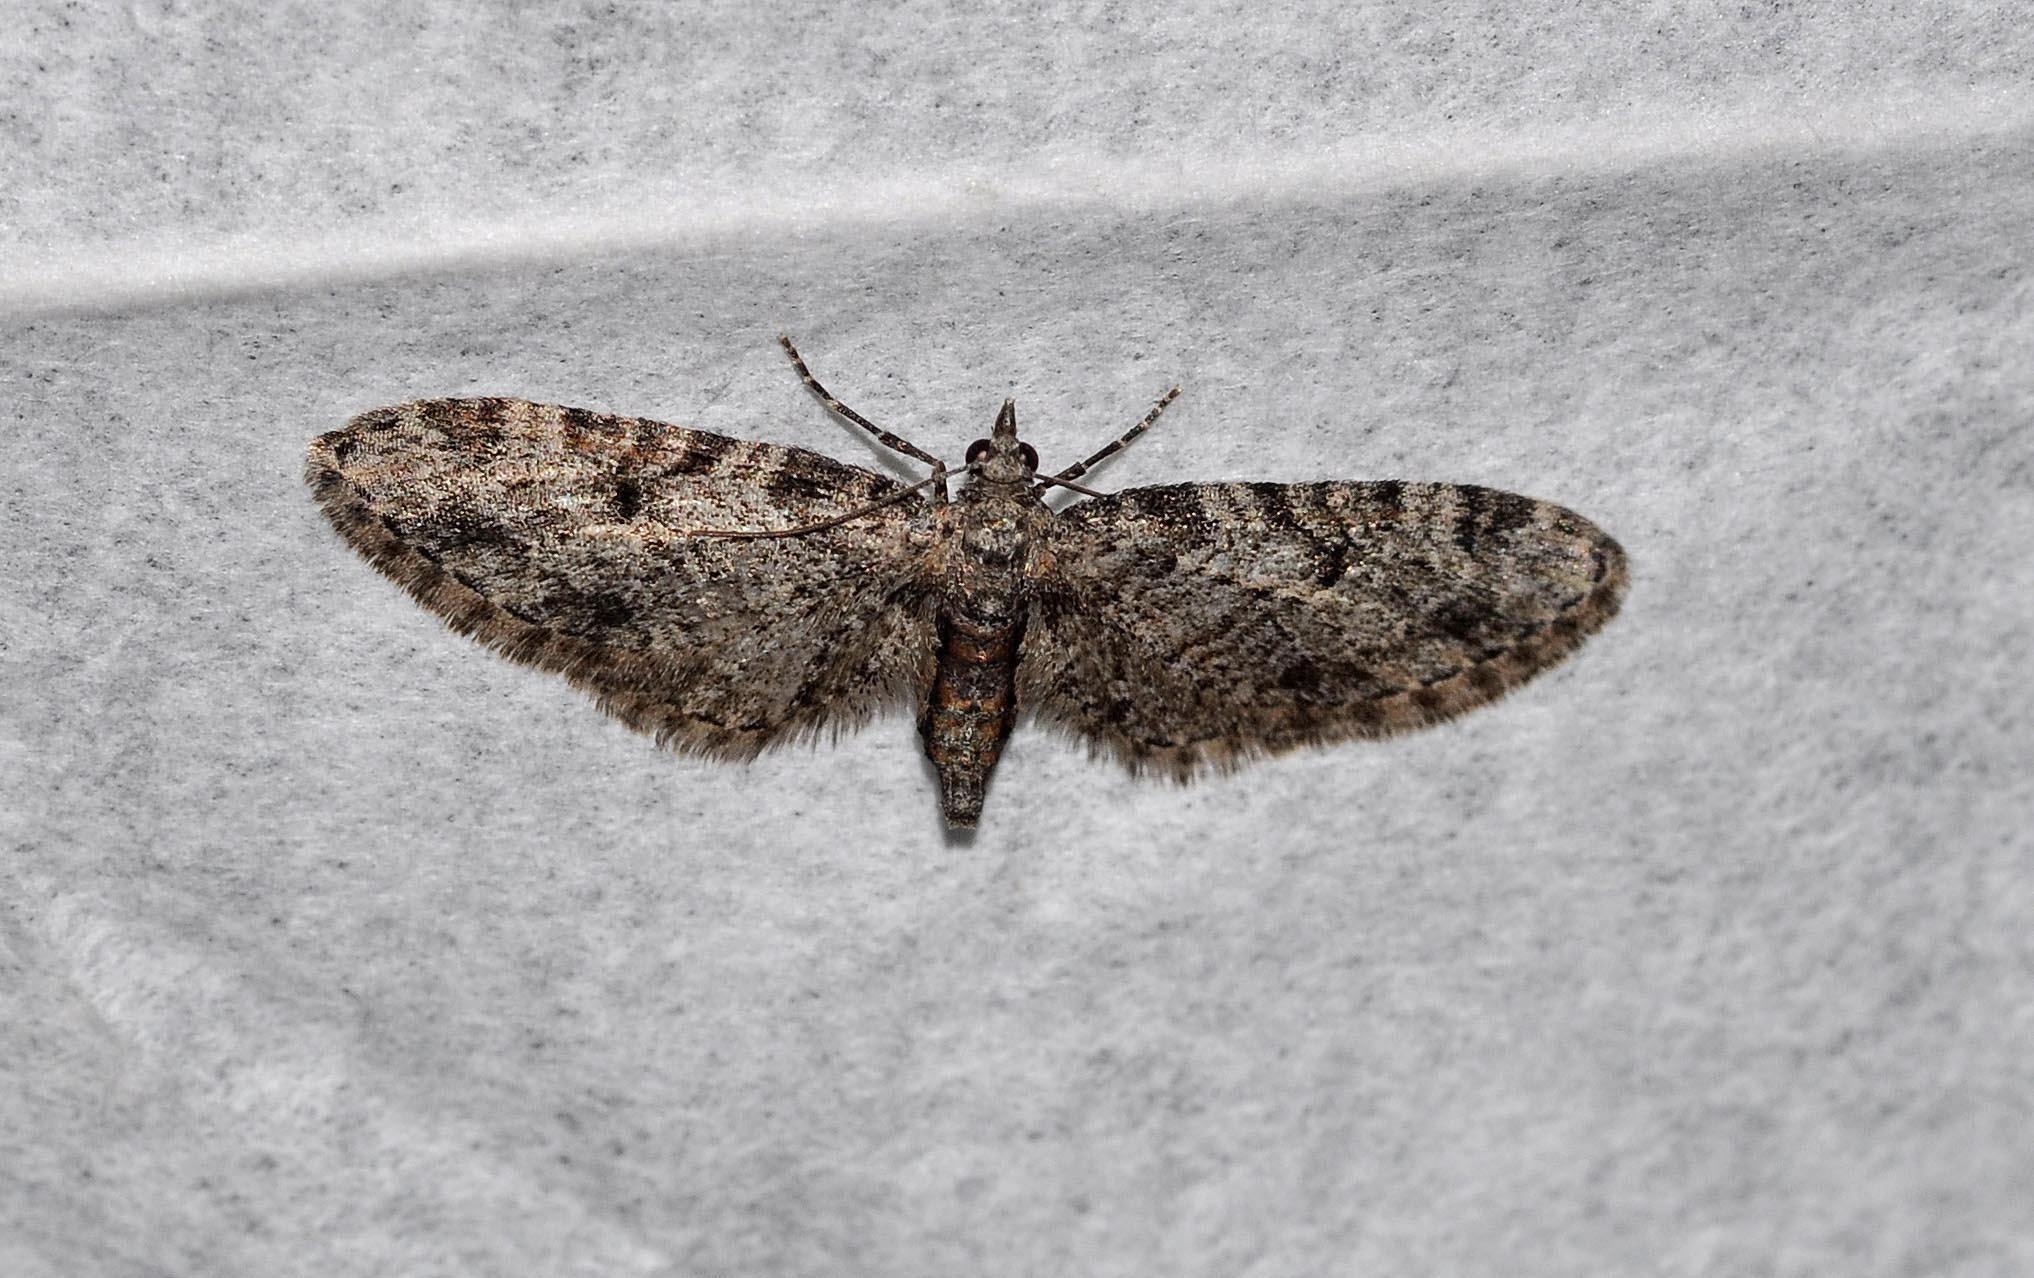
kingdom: Animalia
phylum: Arthropoda
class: Insecta
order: Lepidoptera
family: Geometridae
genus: Eupithecia
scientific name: Eupithecia irriguata
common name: Marbled pug
